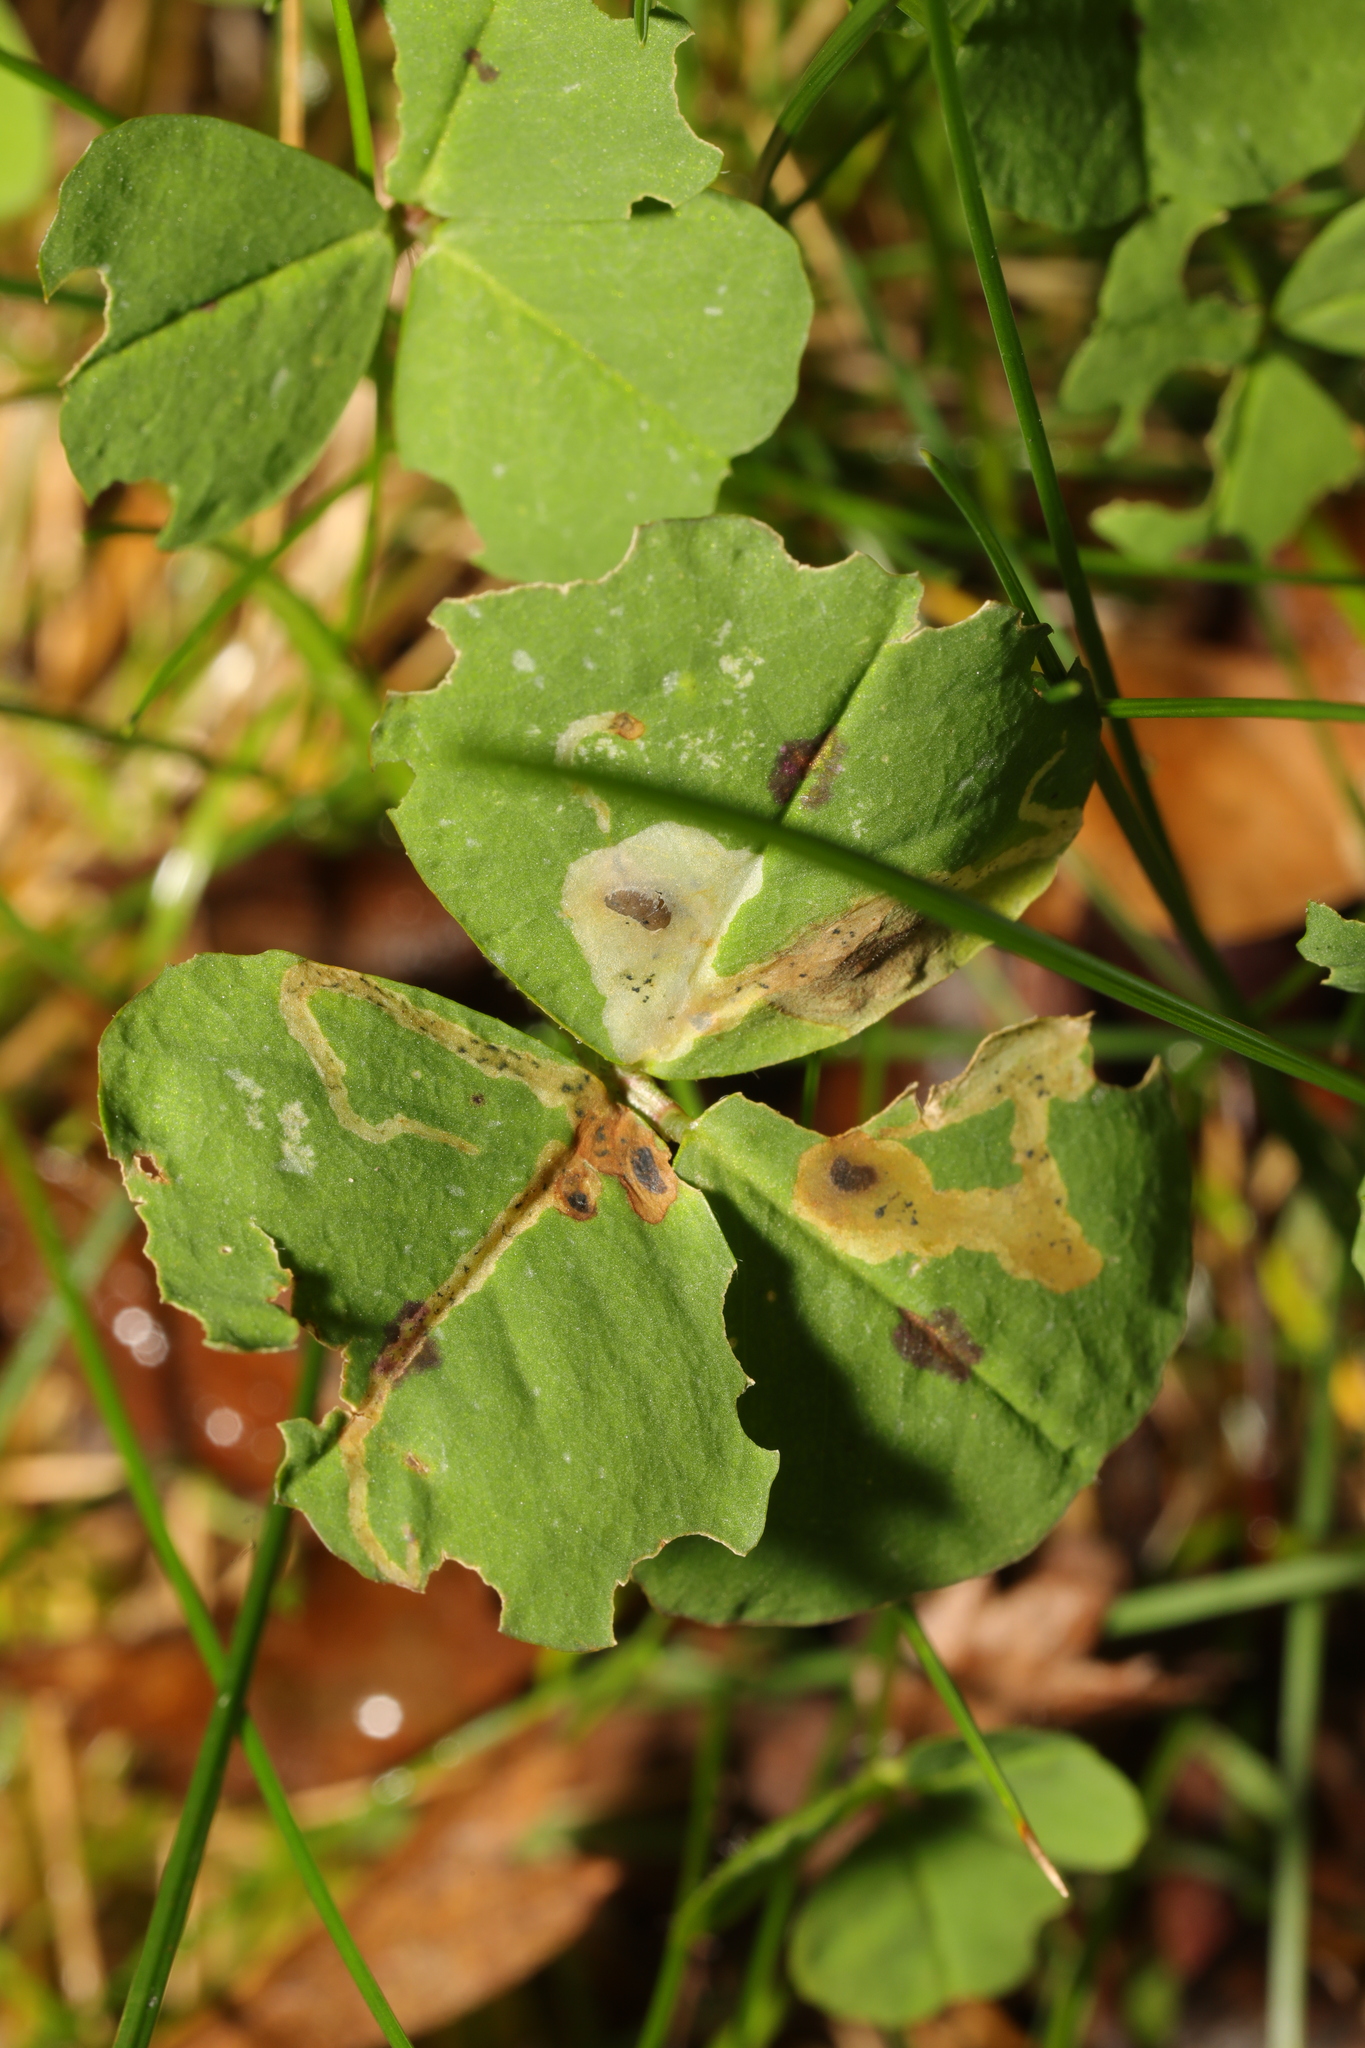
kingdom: Animalia
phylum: Arthropoda
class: Insecta
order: Diptera
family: Agromyzidae
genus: Agromyza
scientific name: Agromyza nana
